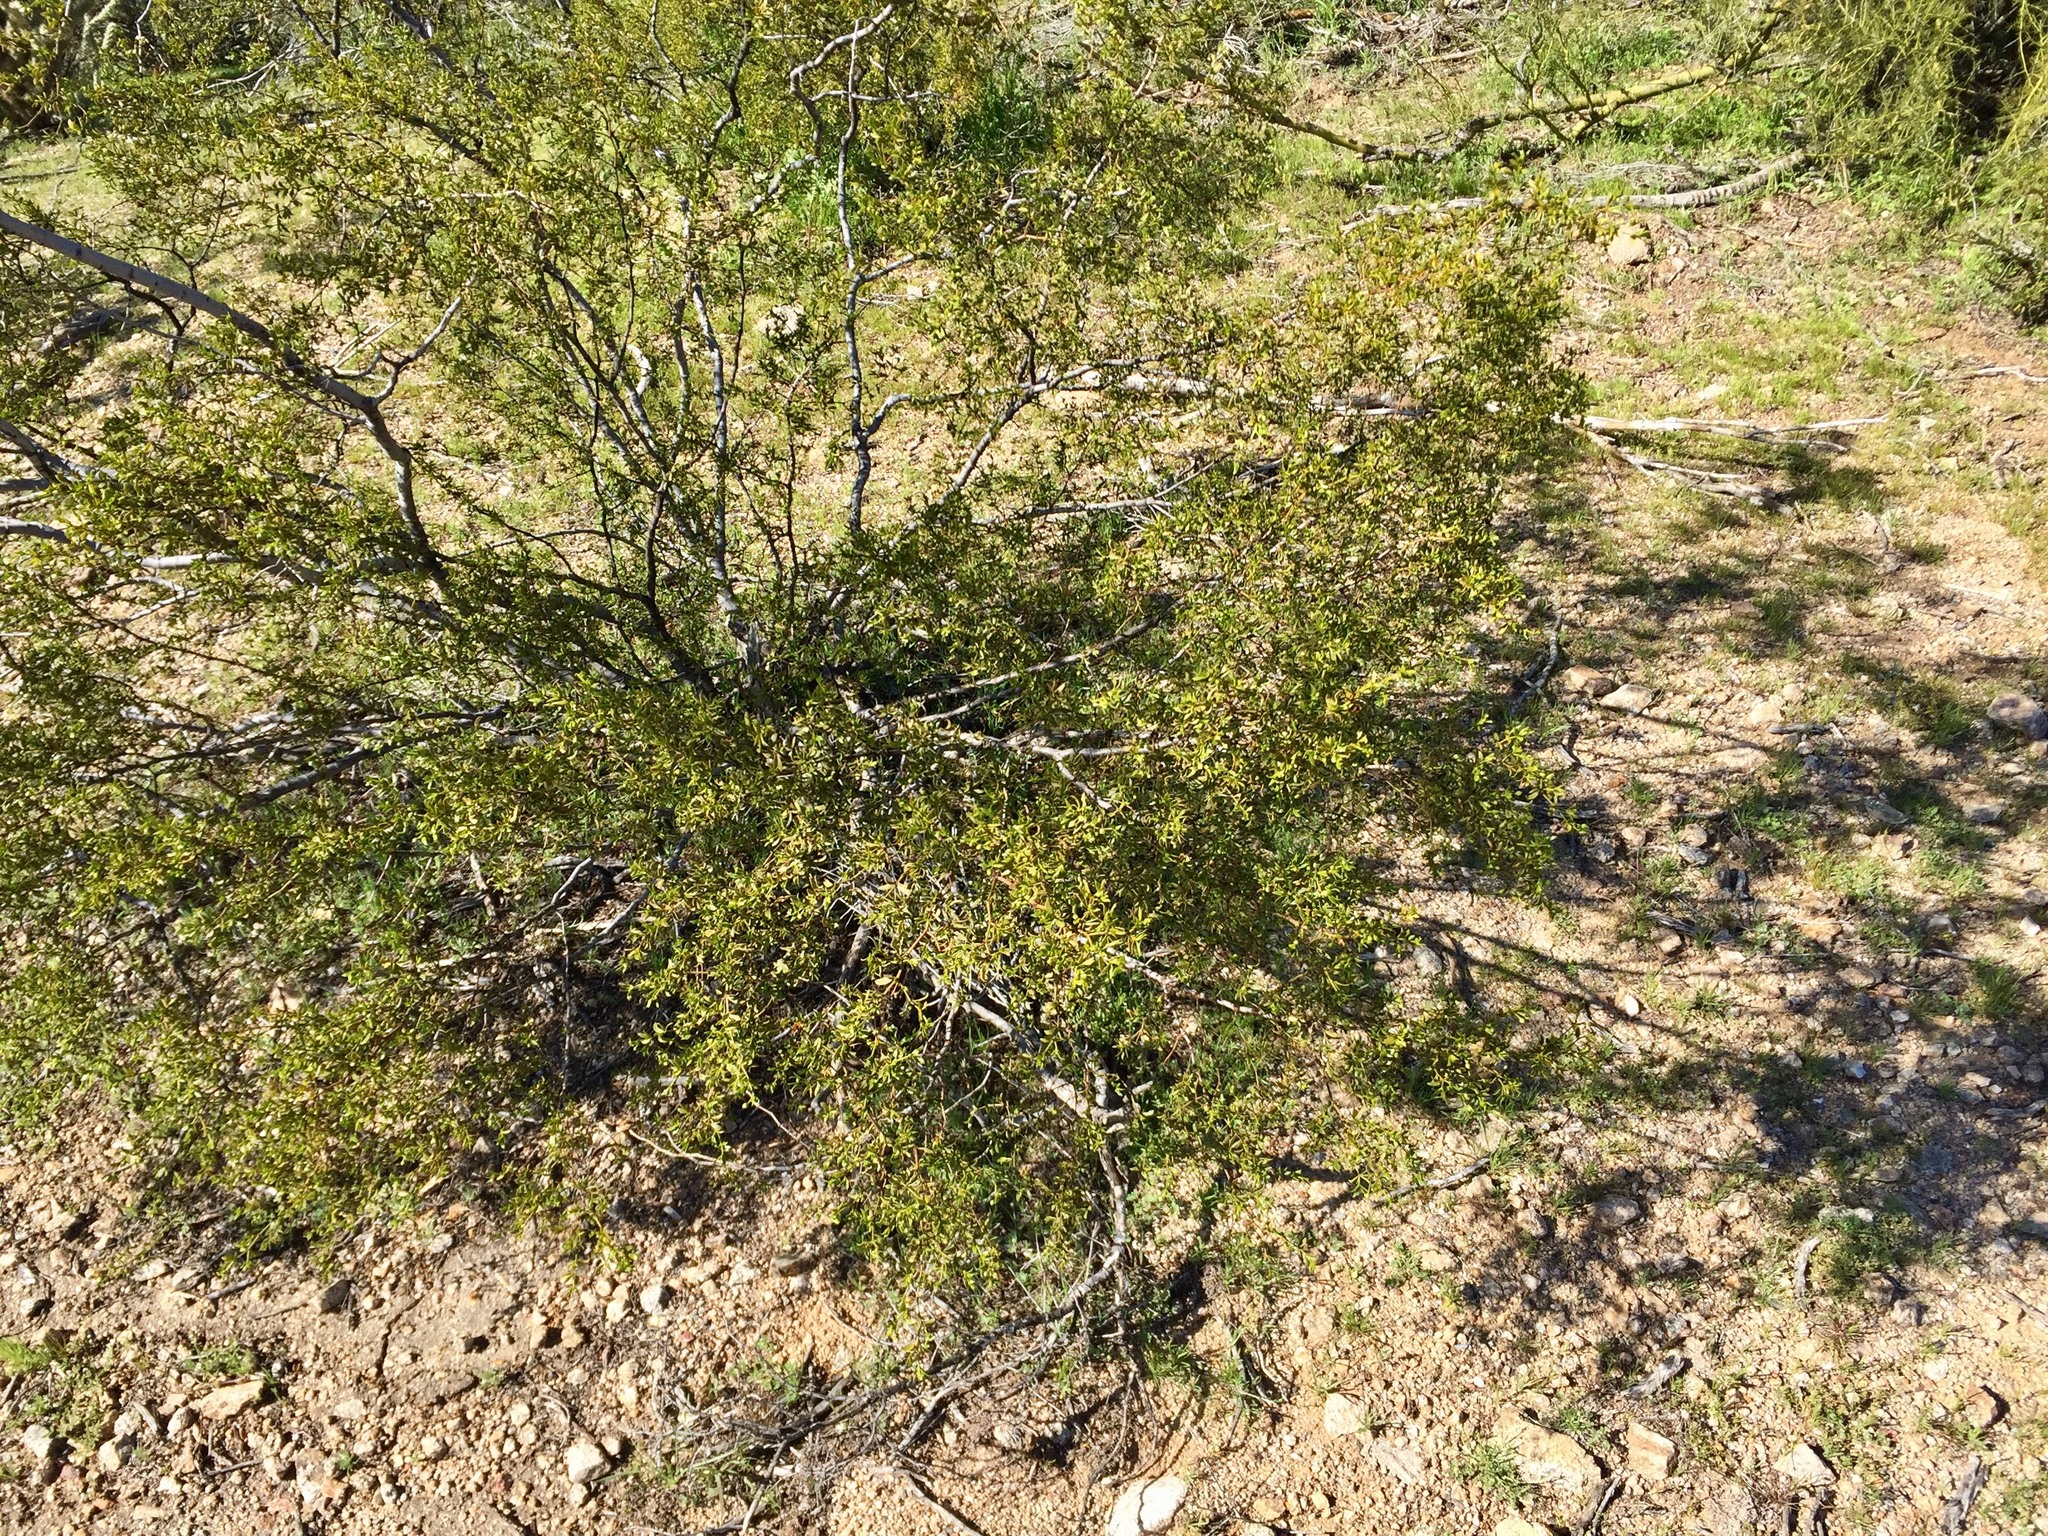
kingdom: Plantae
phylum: Tracheophyta
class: Magnoliopsida
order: Zygophyllales
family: Zygophyllaceae
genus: Larrea
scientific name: Larrea tridentata
